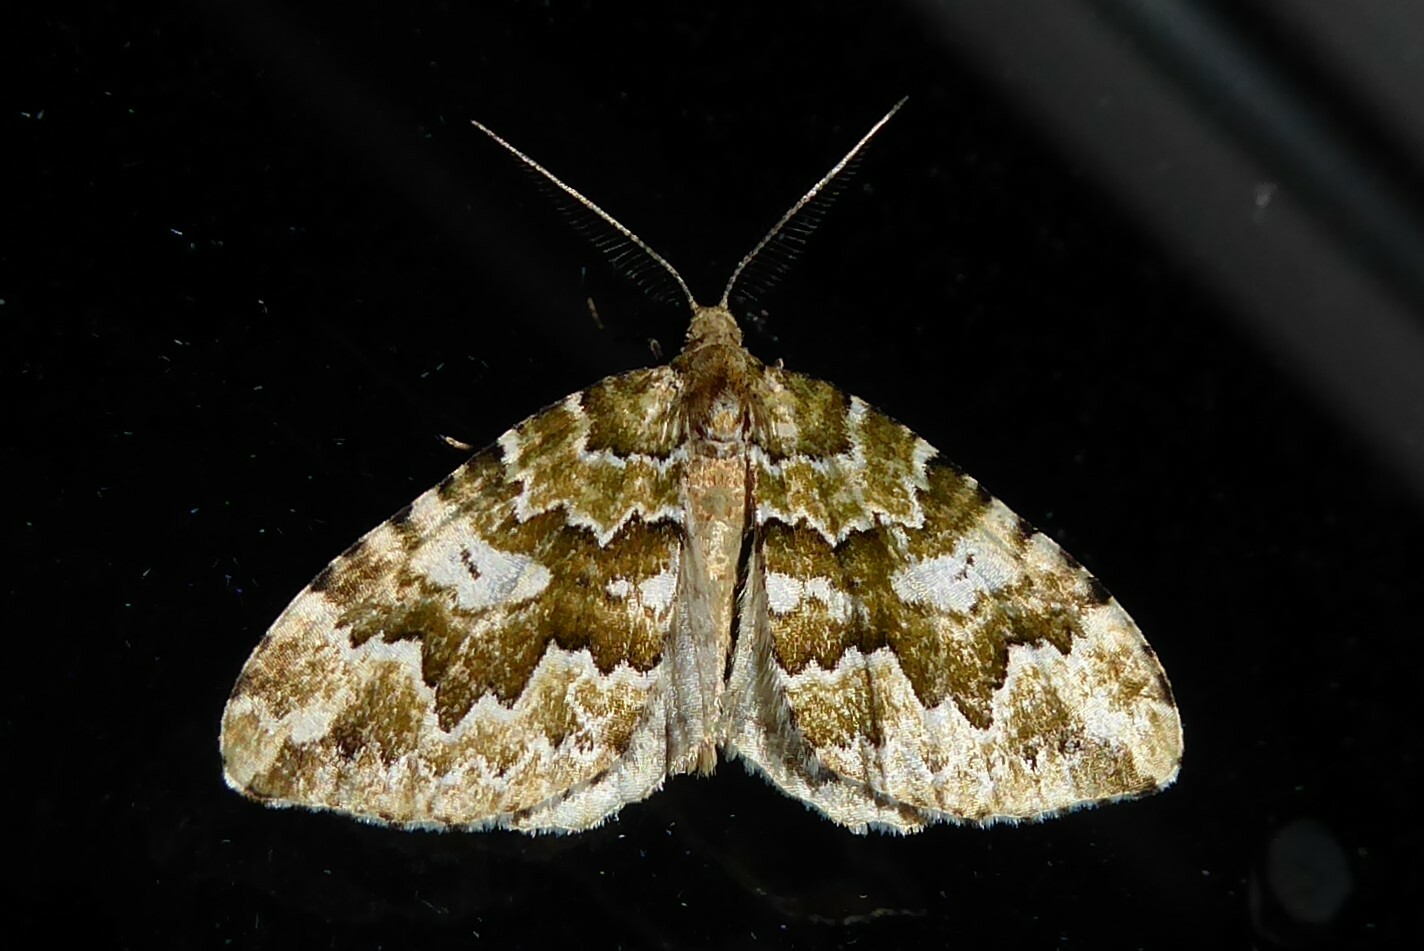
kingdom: Animalia
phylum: Arthropoda
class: Insecta
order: Lepidoptera
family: Geometridae
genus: Asaphodes
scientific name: Asaphodes beata
